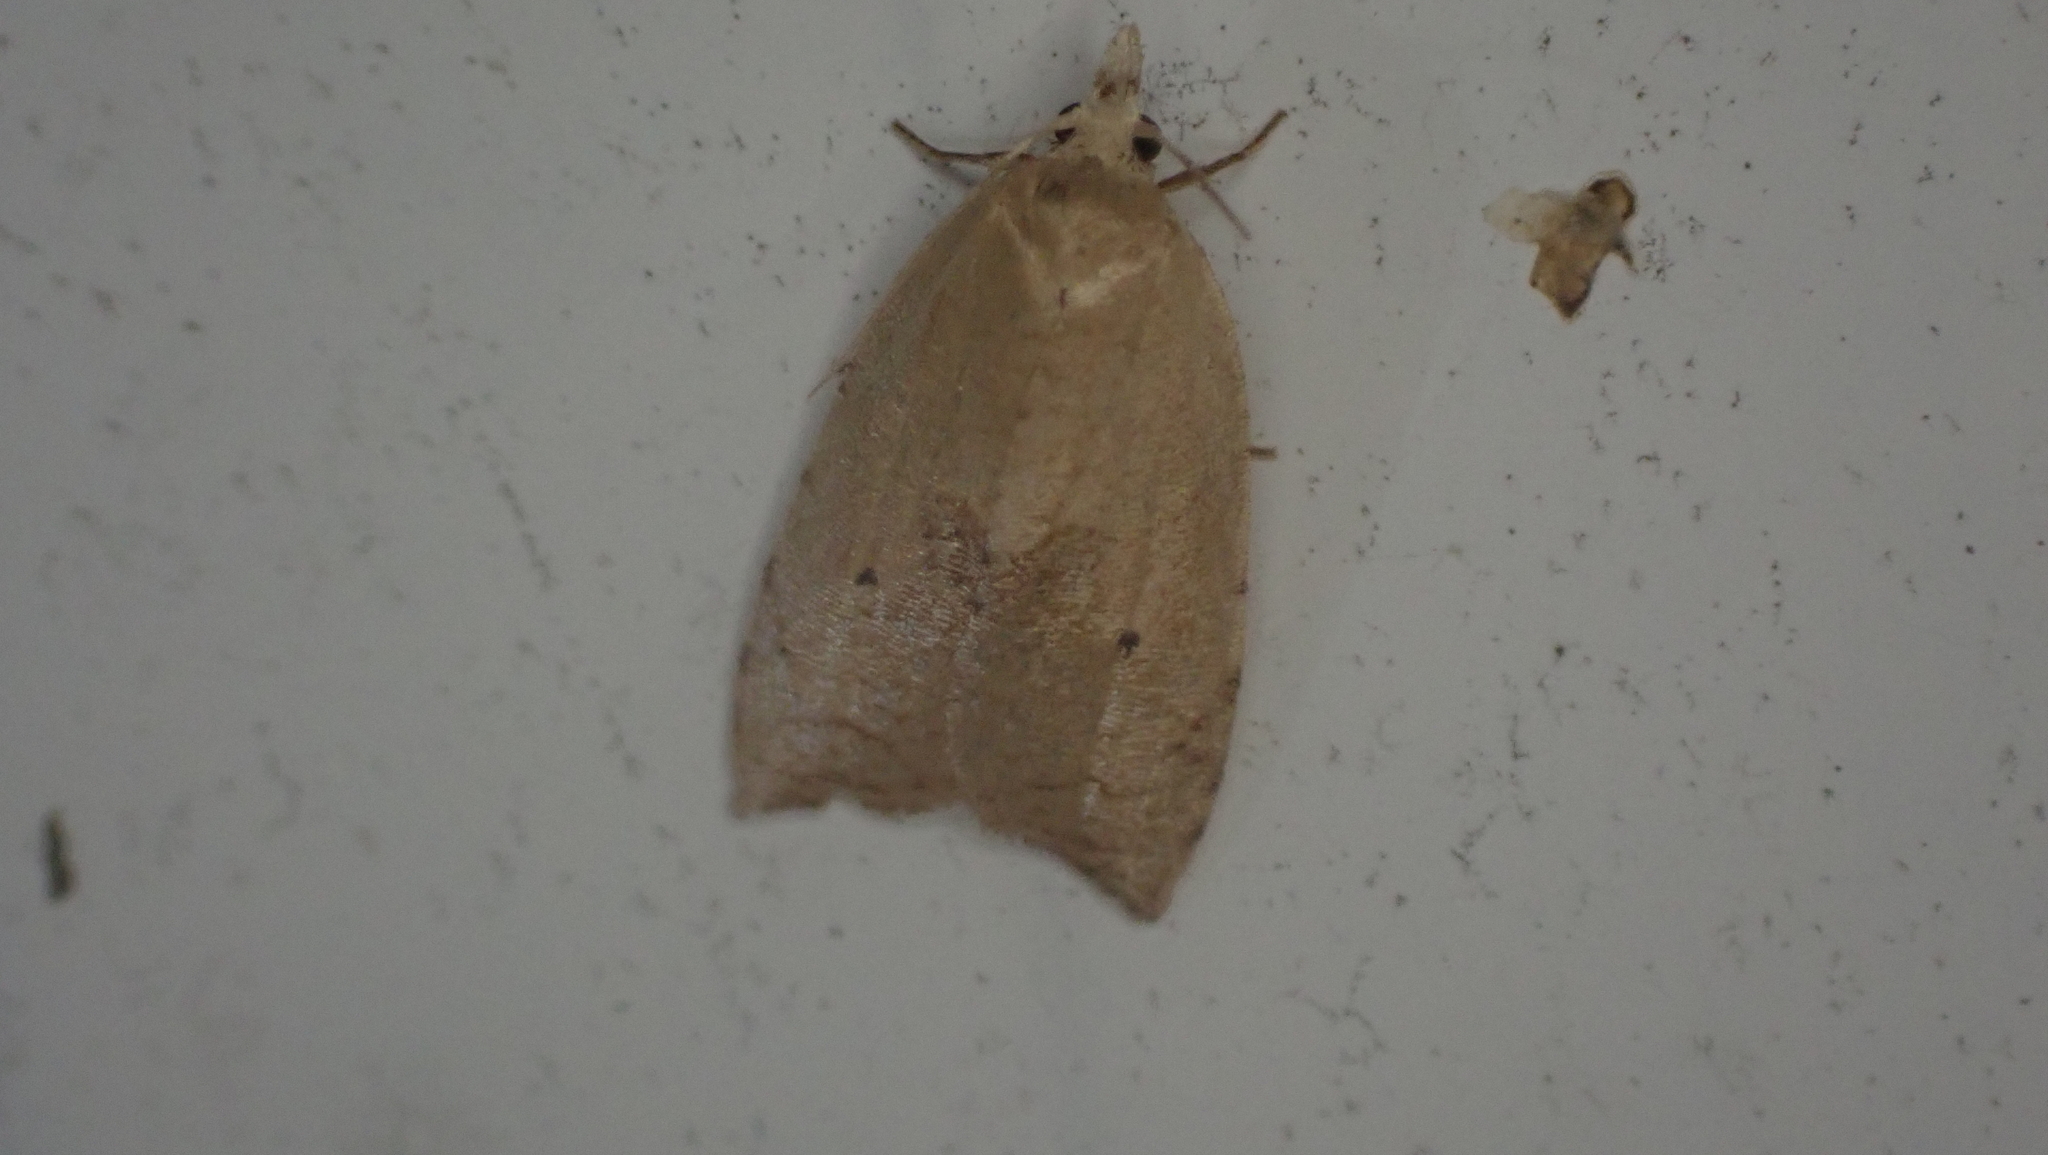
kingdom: Animalia
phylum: Arthropoda
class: Insecta
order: Lepidoptera
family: Tortricidae
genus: Coelostathma
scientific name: Coelostathma discopunctana
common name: Batman moth
